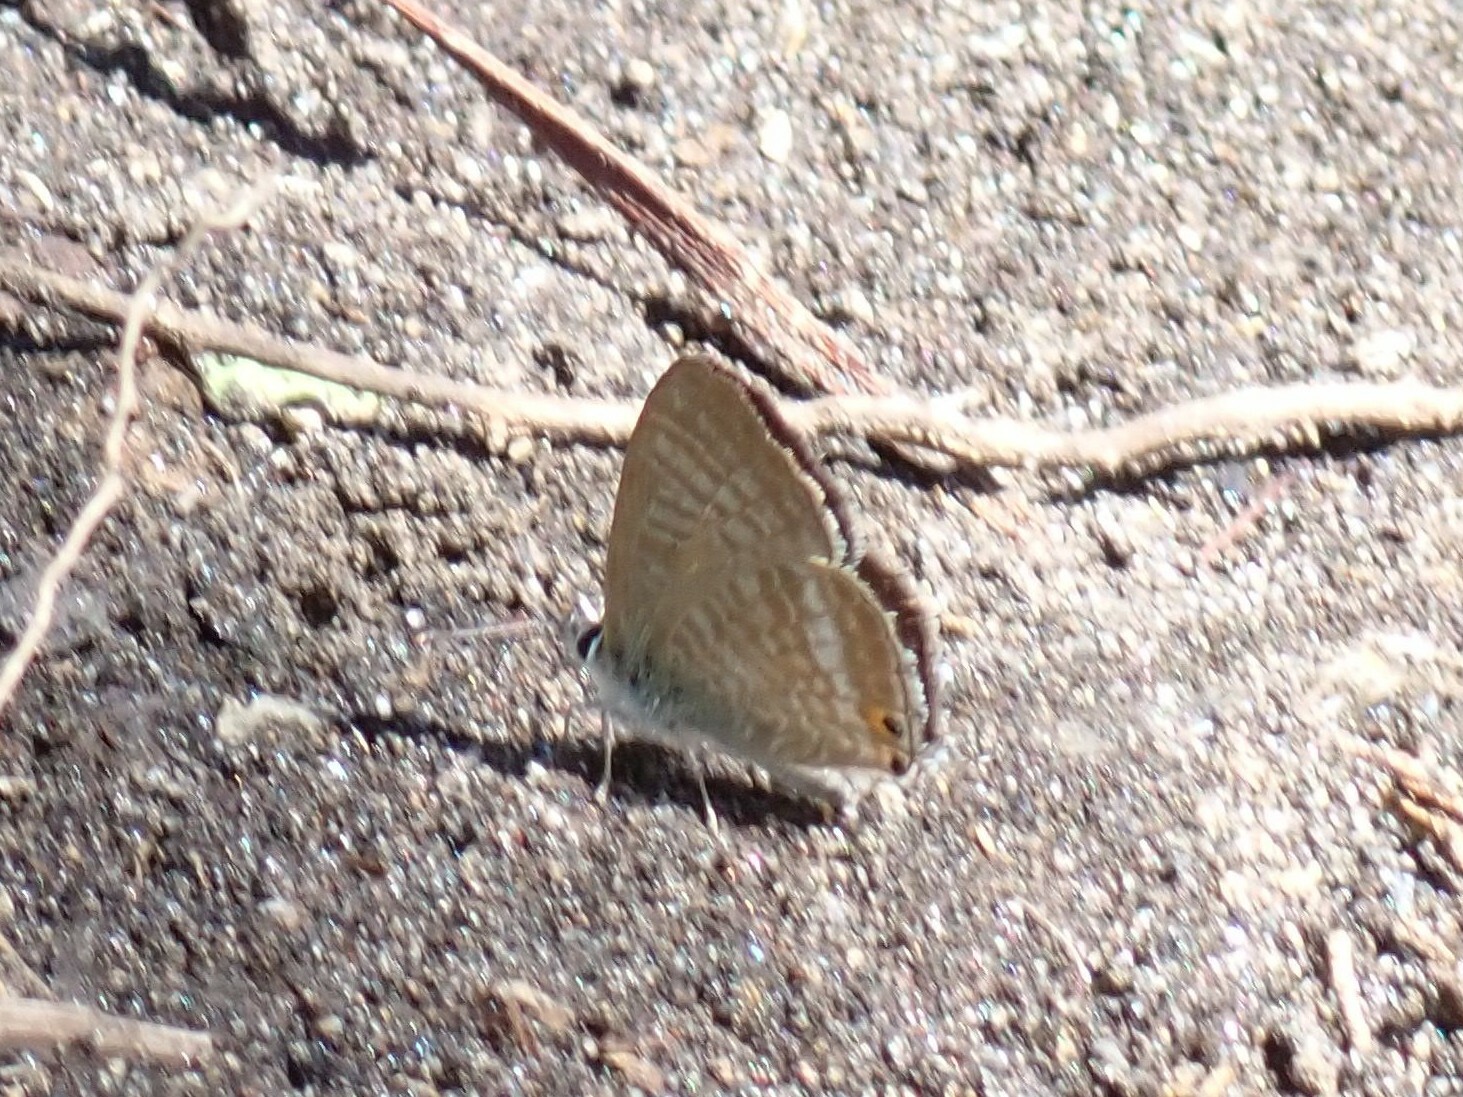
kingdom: Animalia
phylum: Arthropoda
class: Insecta
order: Lepidoptera
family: Lycaenidae
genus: Lampides
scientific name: Lampides boeticus
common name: Long-tailed blue
